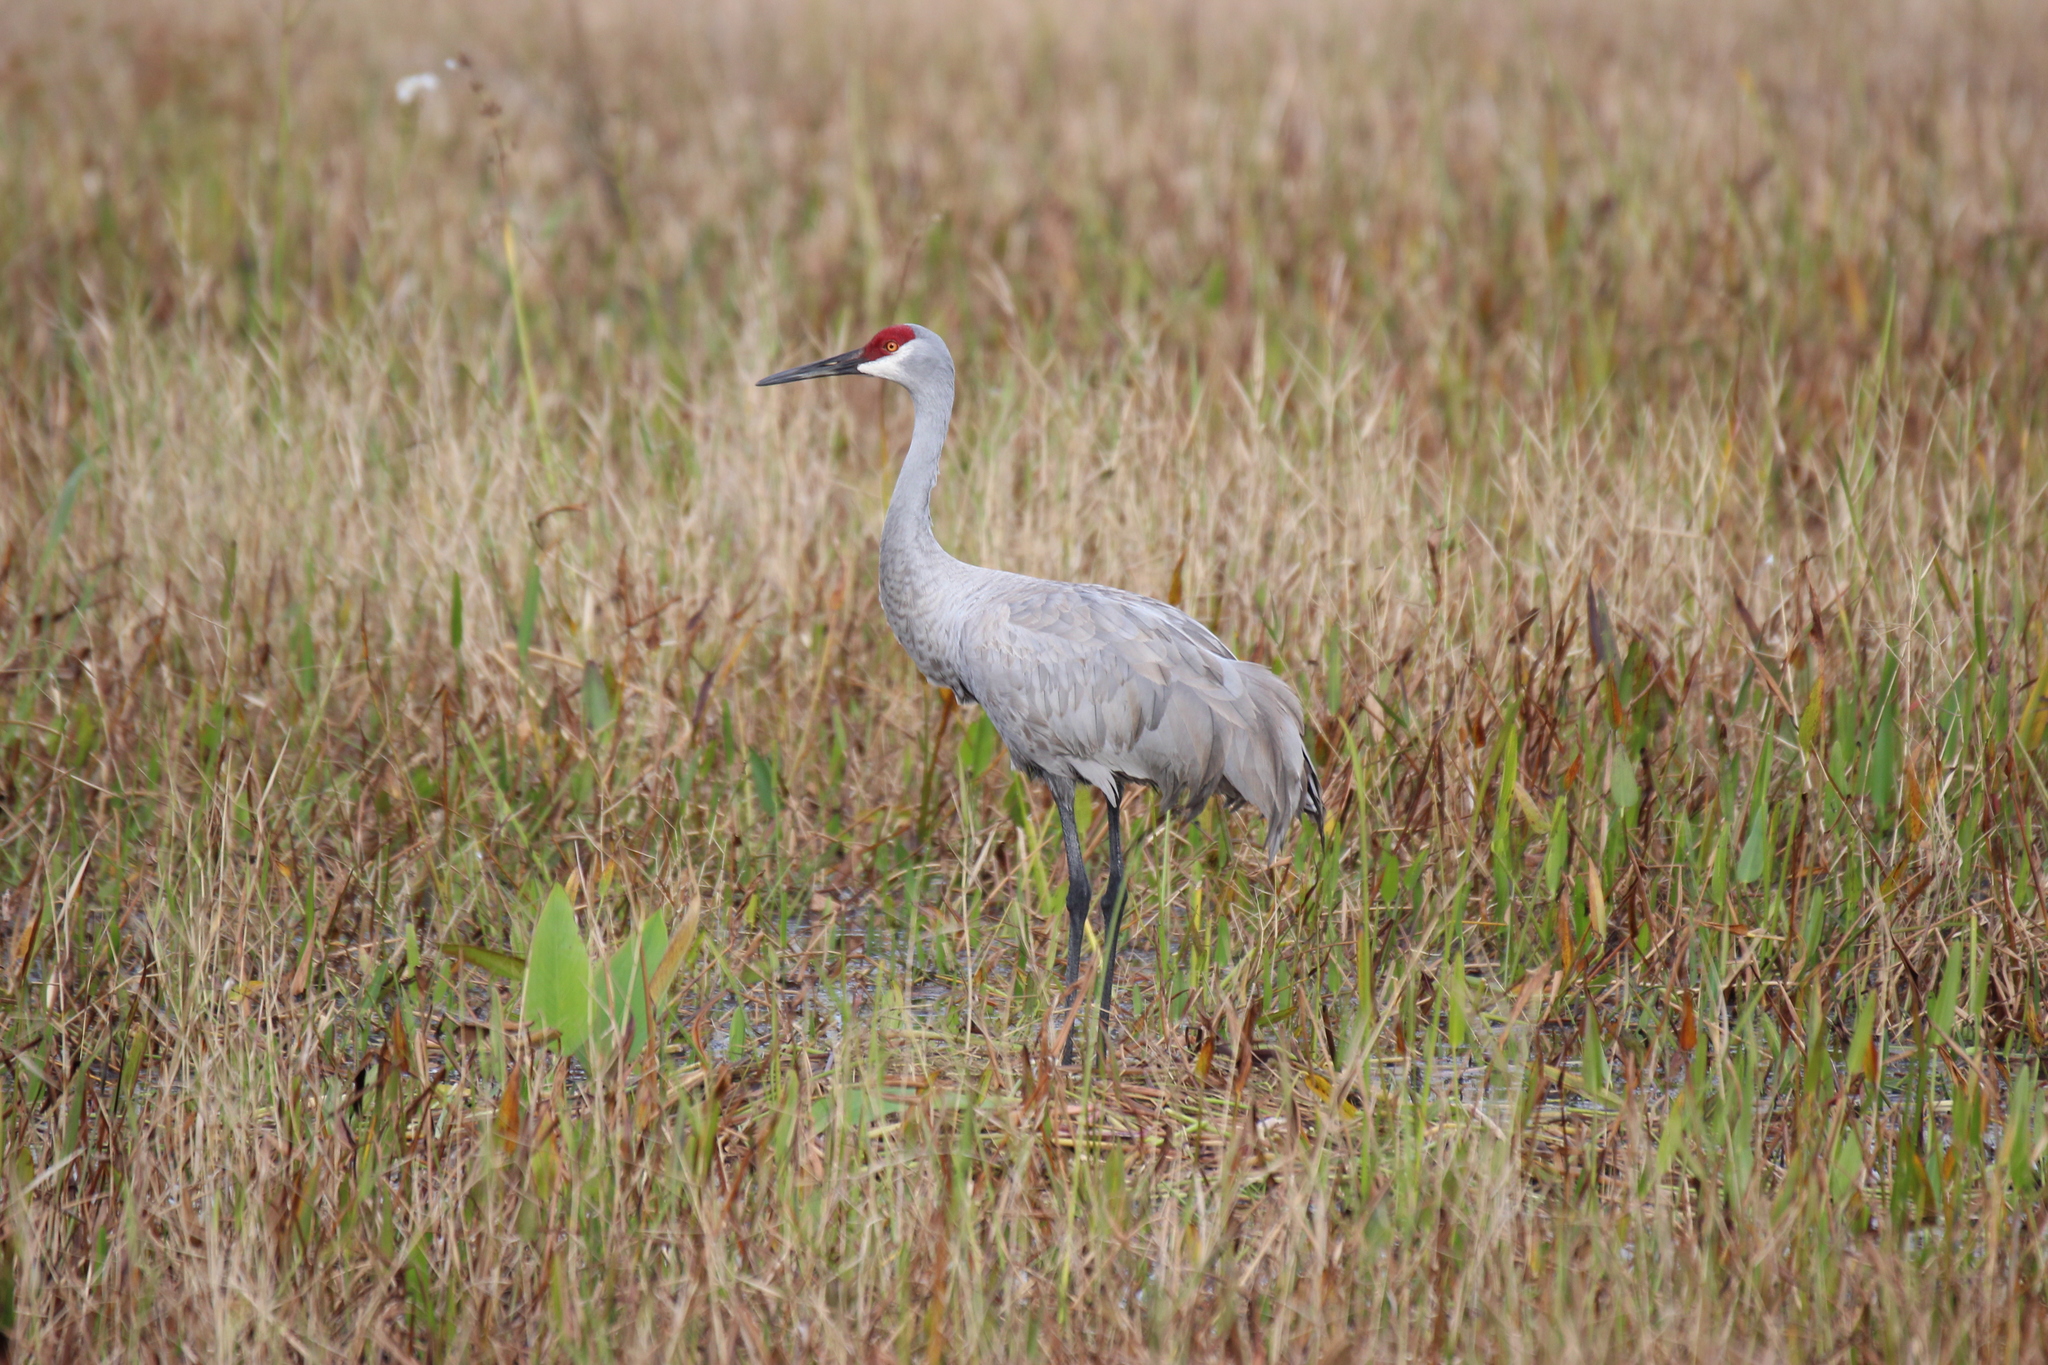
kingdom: Animalia
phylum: Chordata
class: Aves
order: Gruiformes
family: Gruidae
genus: Grus
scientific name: Grus canadensis
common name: Sandhill crane
